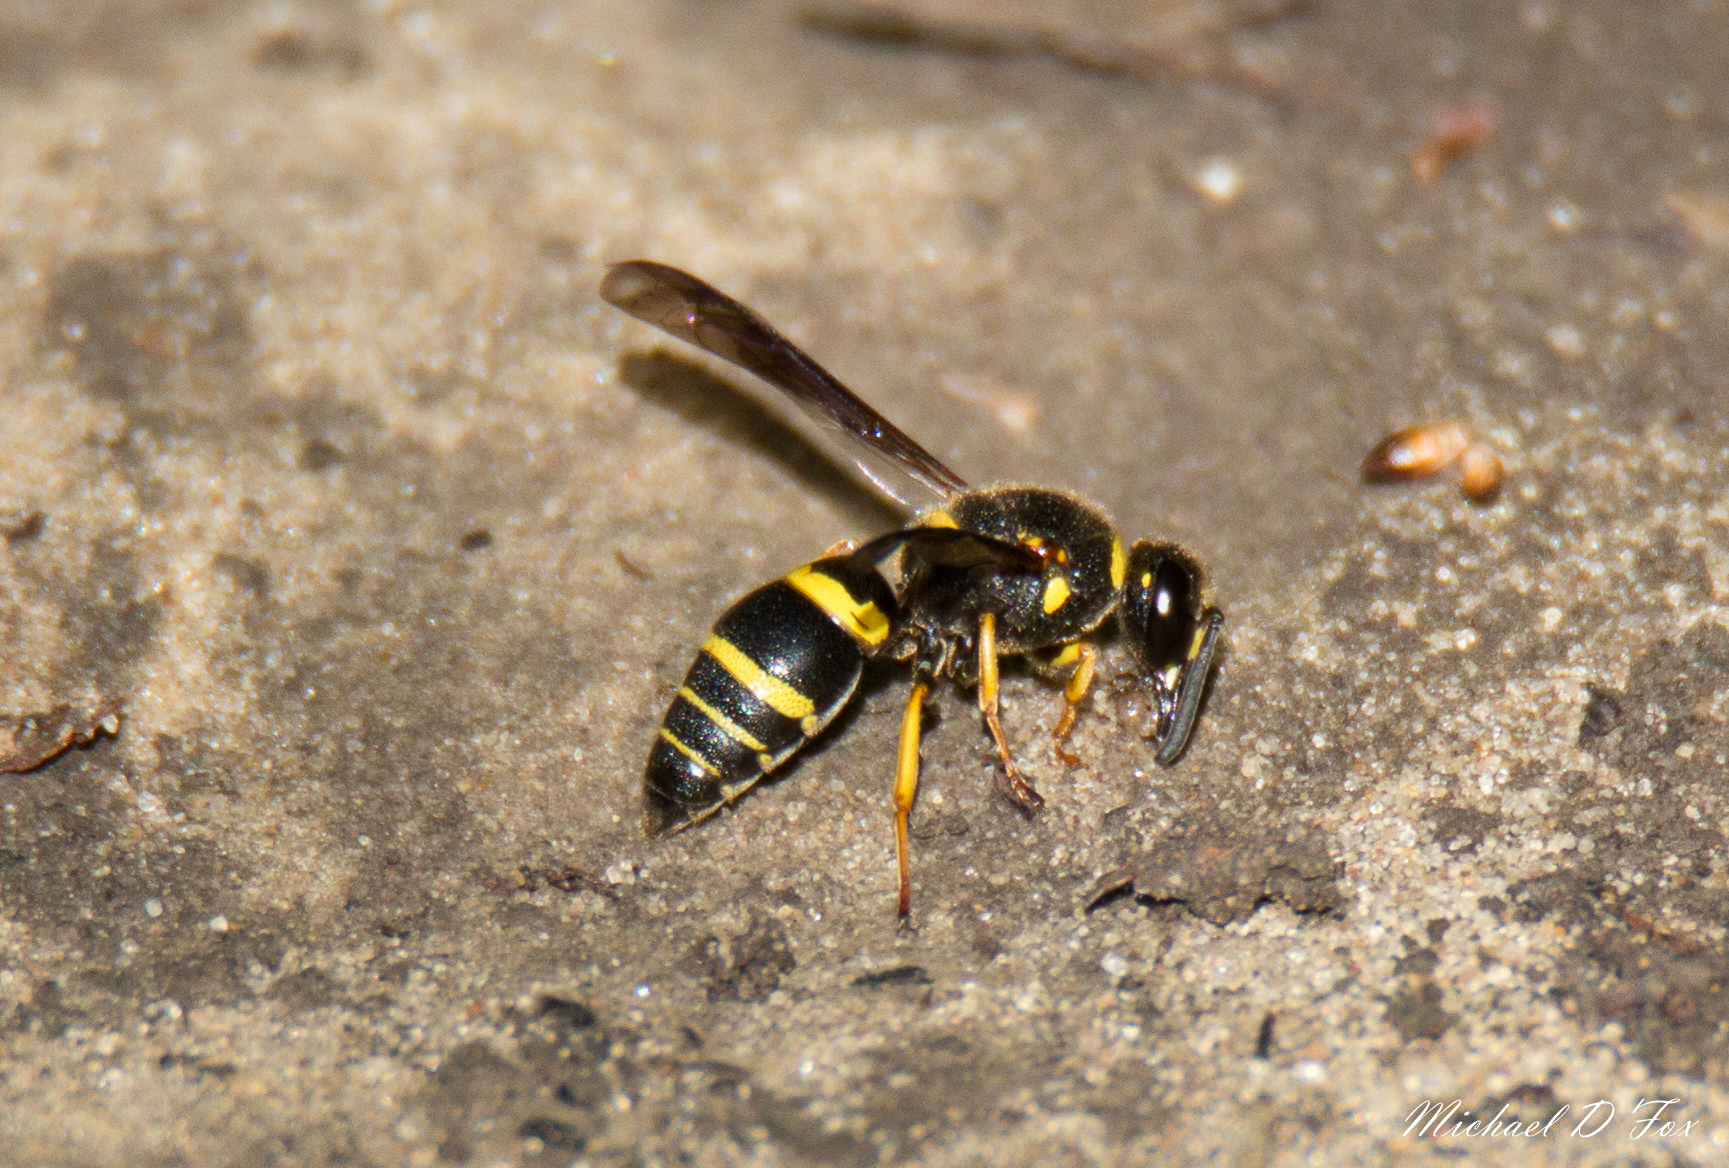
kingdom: Animalia
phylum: Arthropoda
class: Insecta
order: Hymenoptera
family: Eumenidae
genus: Euodynerus
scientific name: Euodynerus
